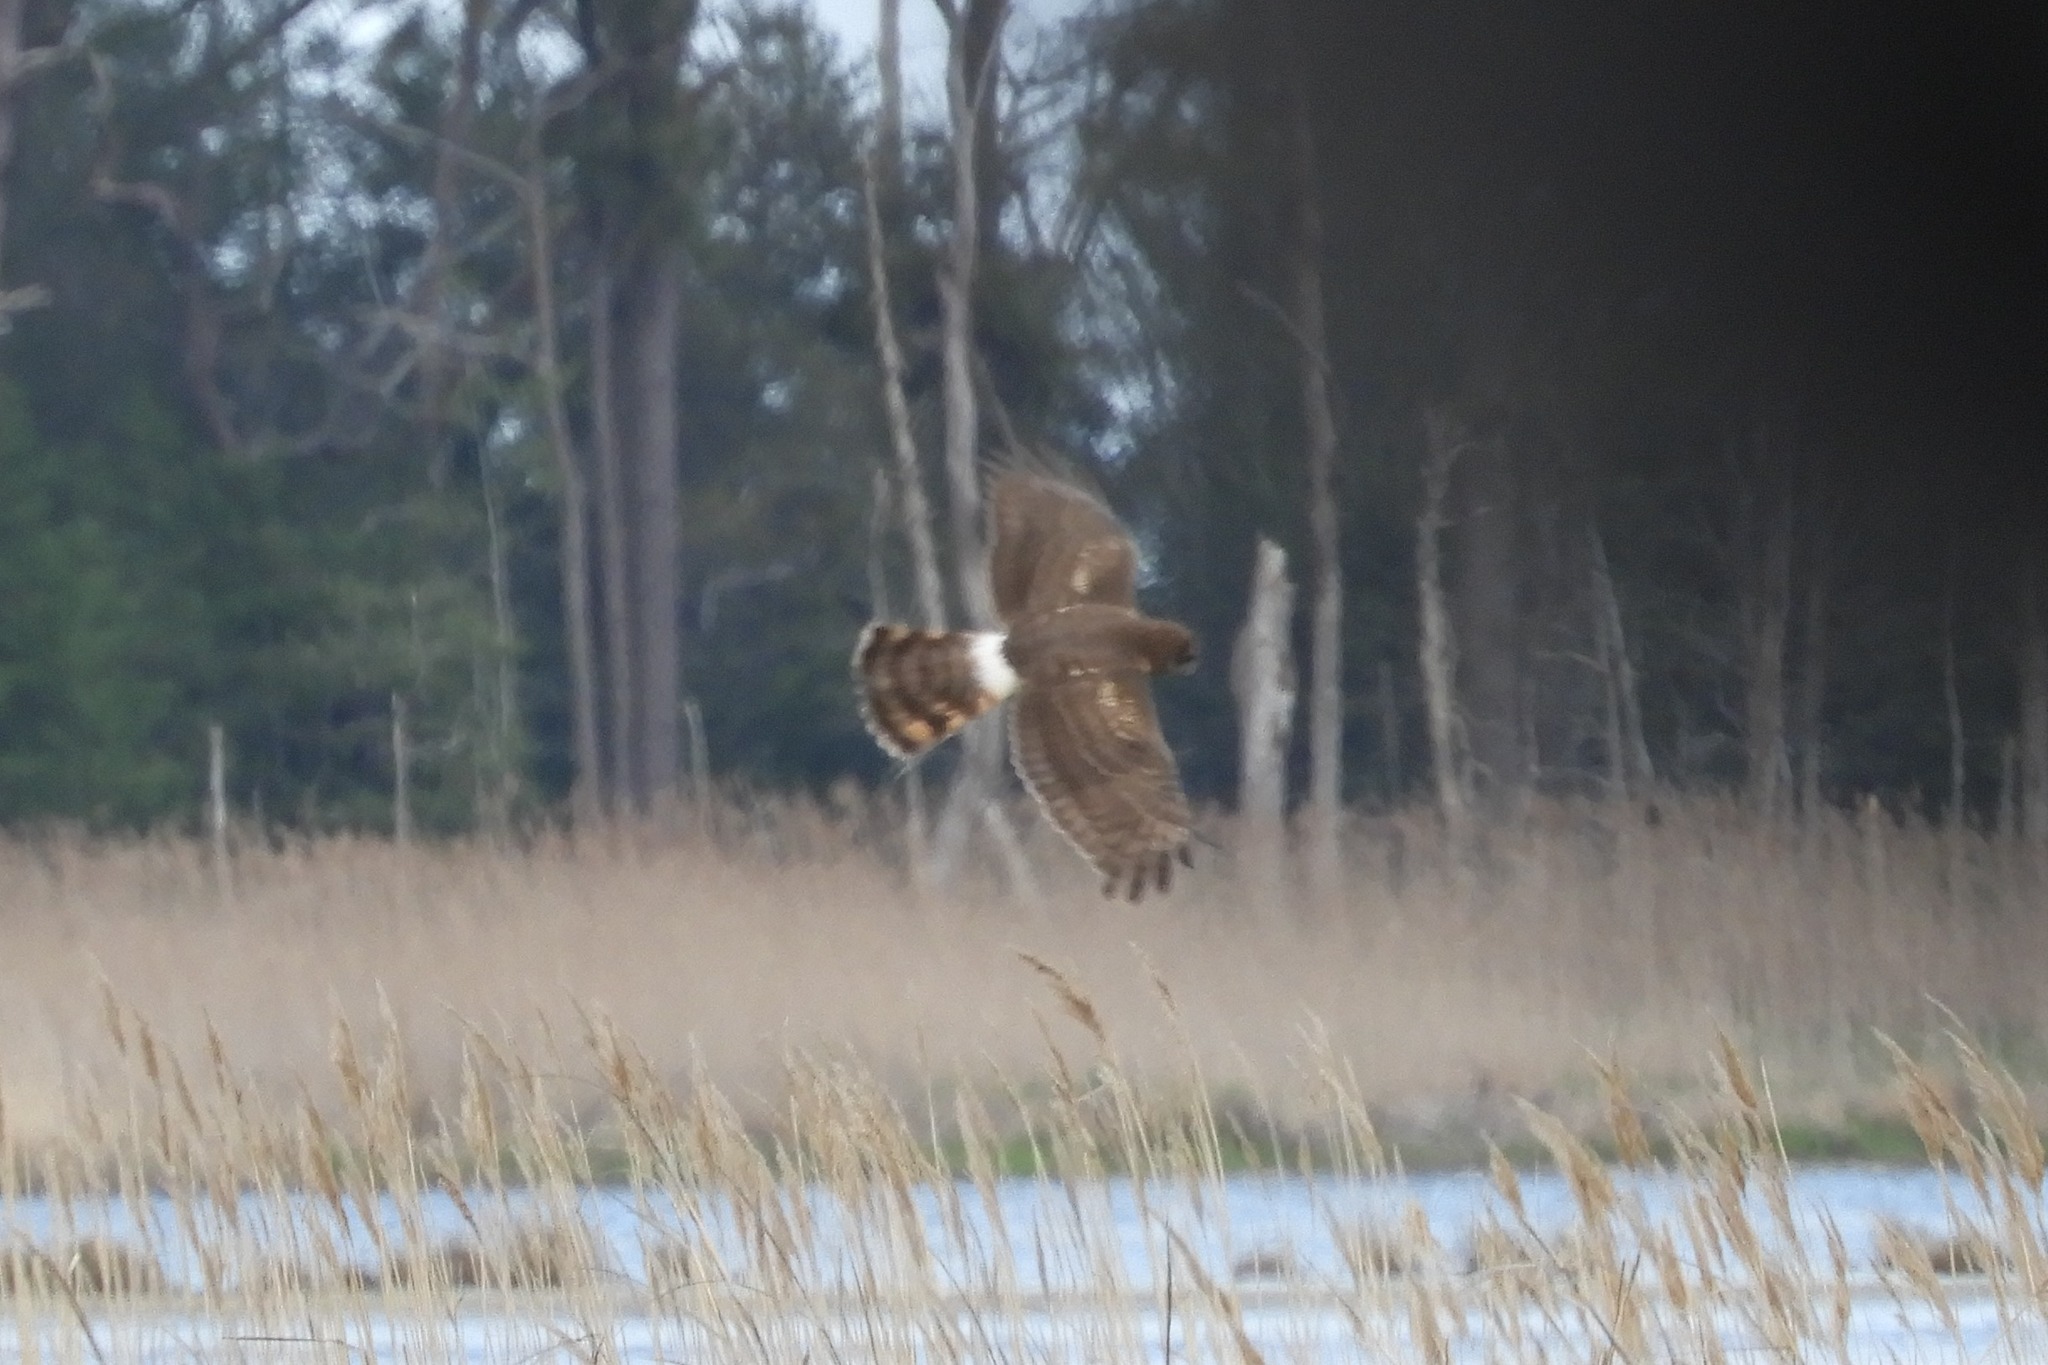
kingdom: Animalia
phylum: Chordata
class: Aves
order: Accipitriformes
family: Accipitridae
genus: Circus
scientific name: Circus cyaneus
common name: Hen harrier
